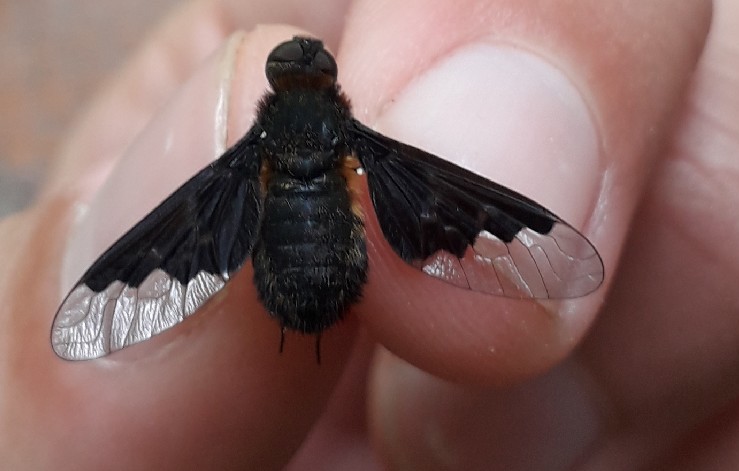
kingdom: Animalia
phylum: Arthropoda
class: Insecta
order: Diptera
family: Bombyliidae
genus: Hemipenthes
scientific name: Hemipenthes morio
